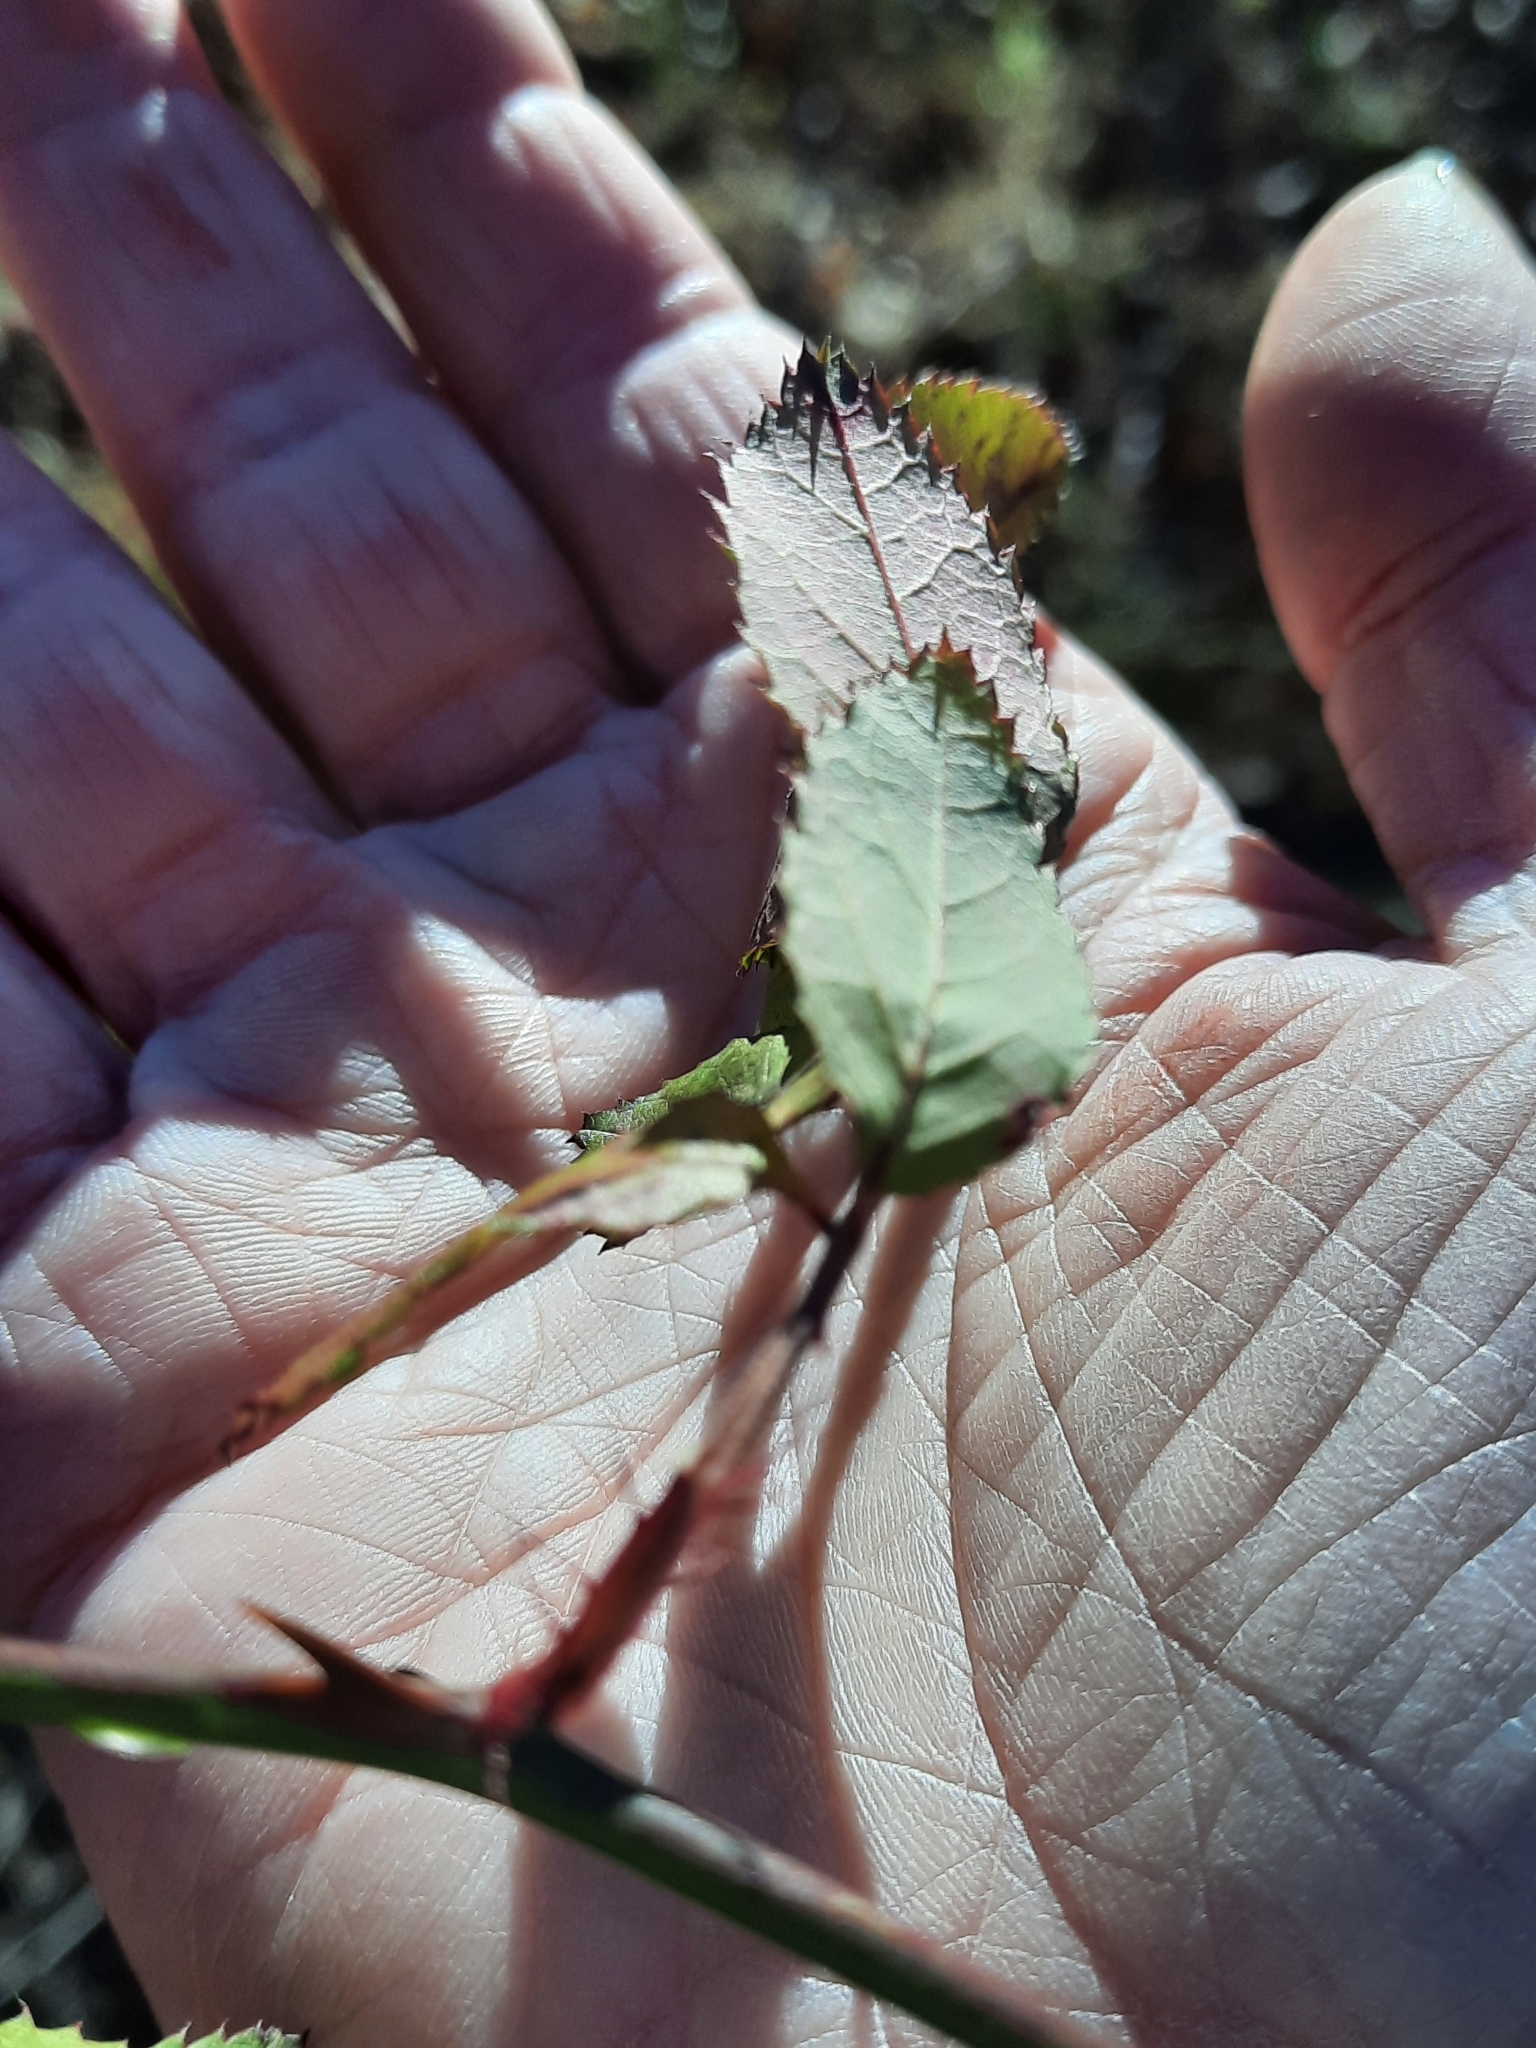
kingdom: Plantae
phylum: Tracheophyta
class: Magnoliopsida
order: Rosales
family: Rosaceae
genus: Rosa
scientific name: Rosa multiflora
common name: Multiflora rose
